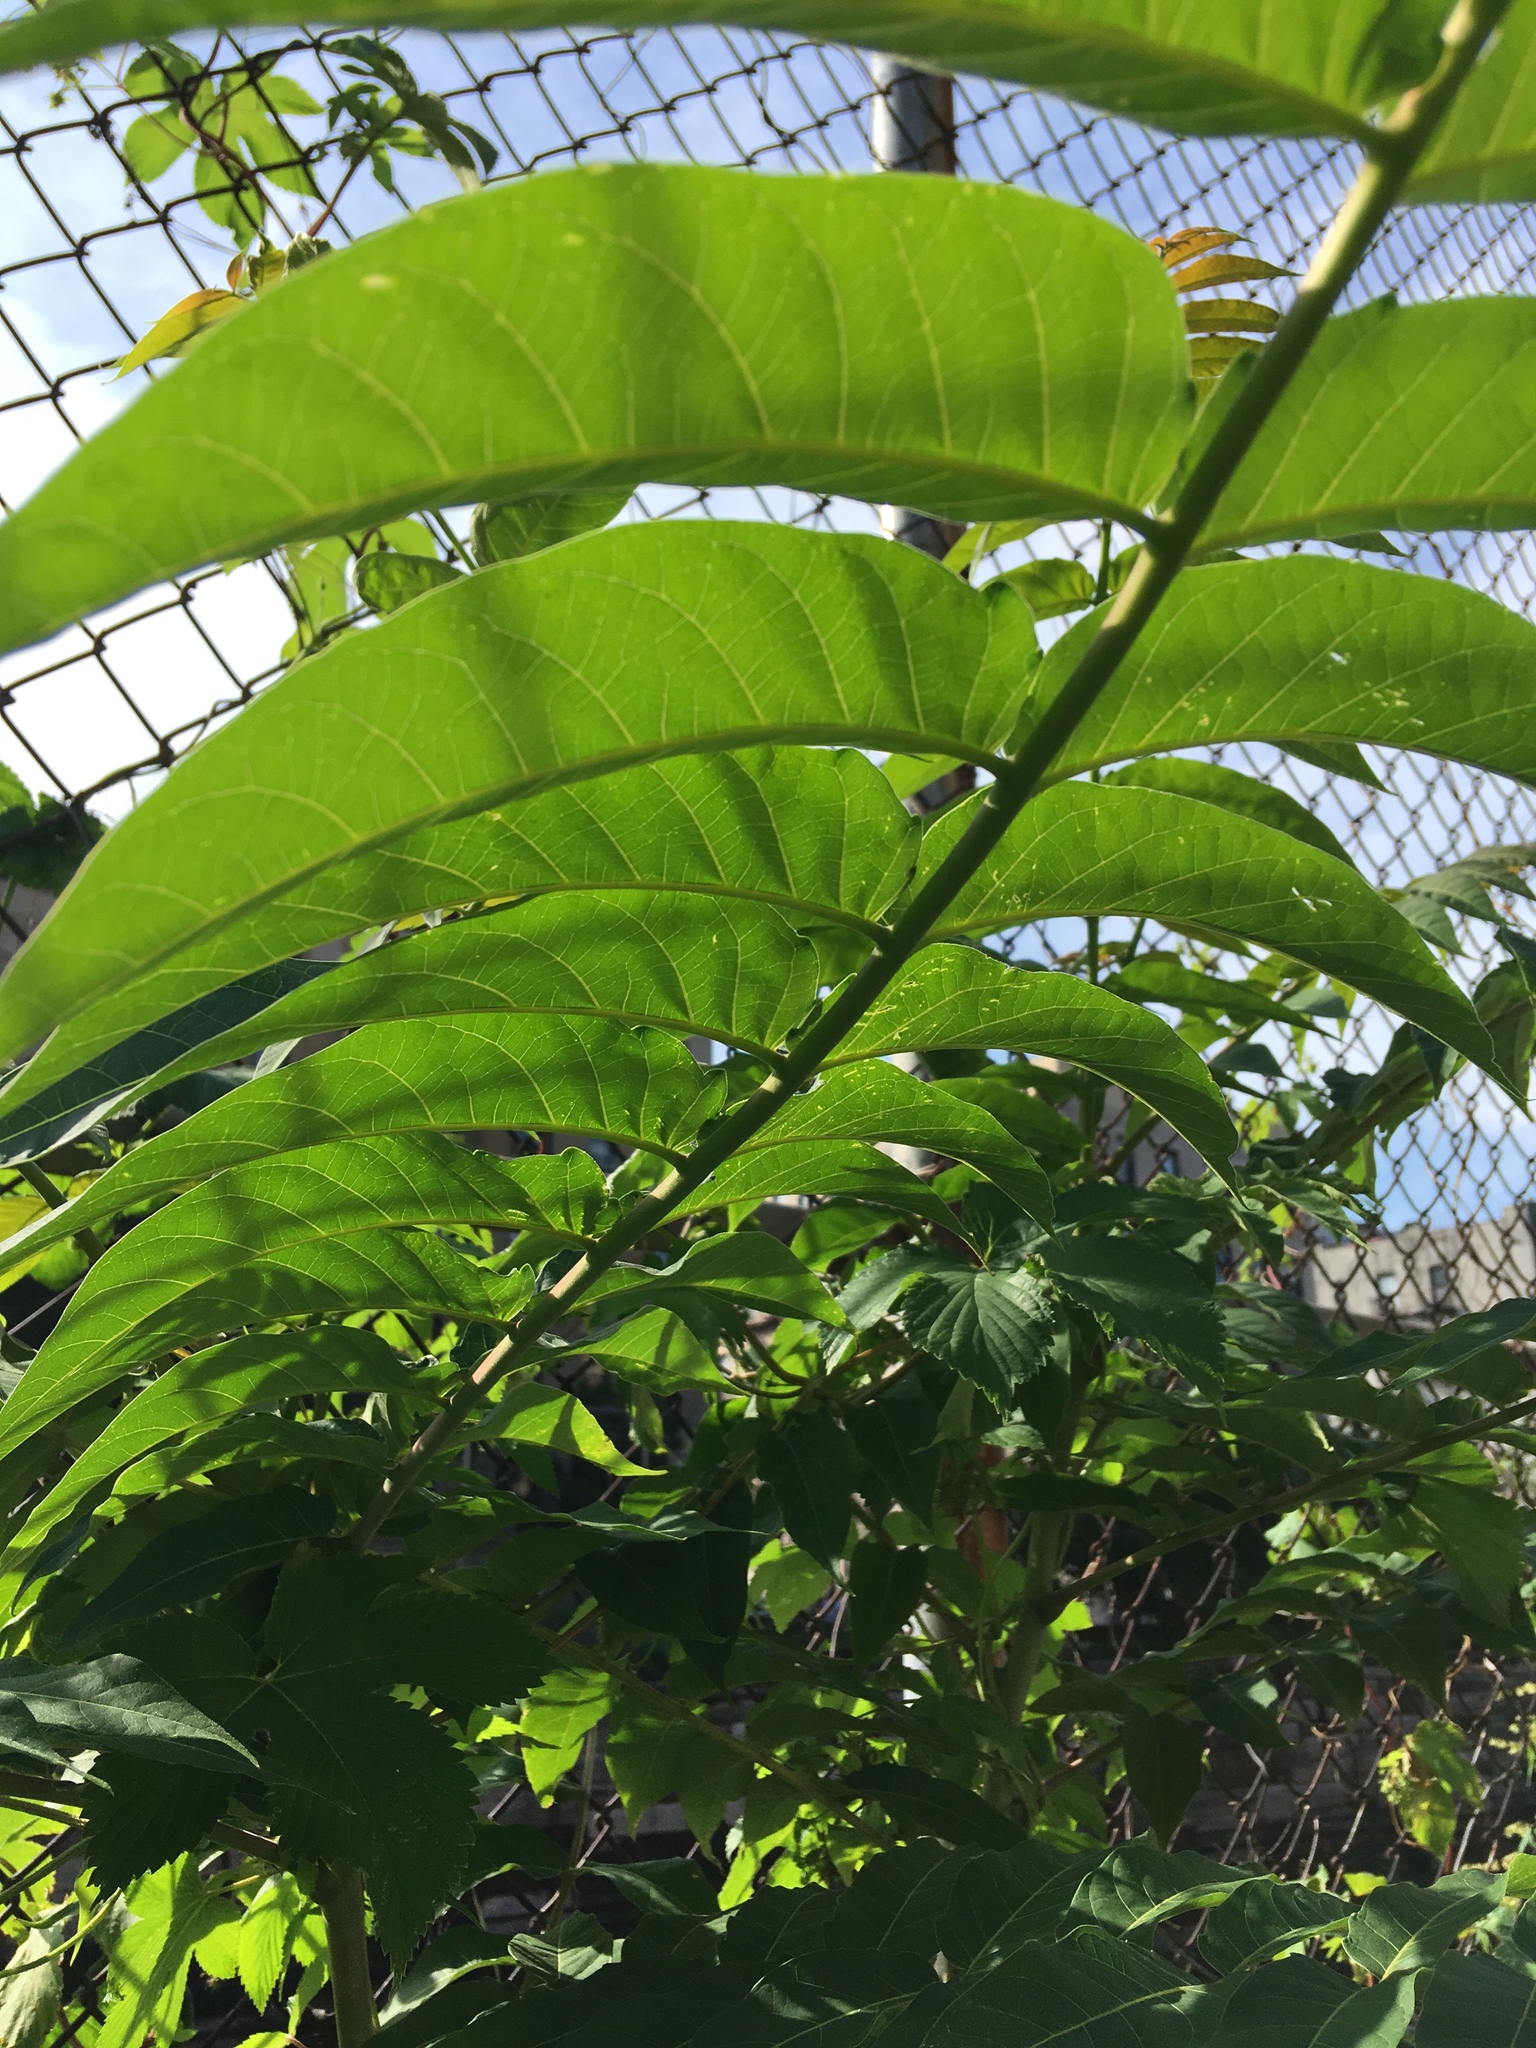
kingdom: Plantae
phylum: Tracheophyta
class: Magnoliopsida
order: Sapindales
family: Simaroubaceae
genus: Ailanthus
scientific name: Ailanthus altissima
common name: Tree-of-heaven
